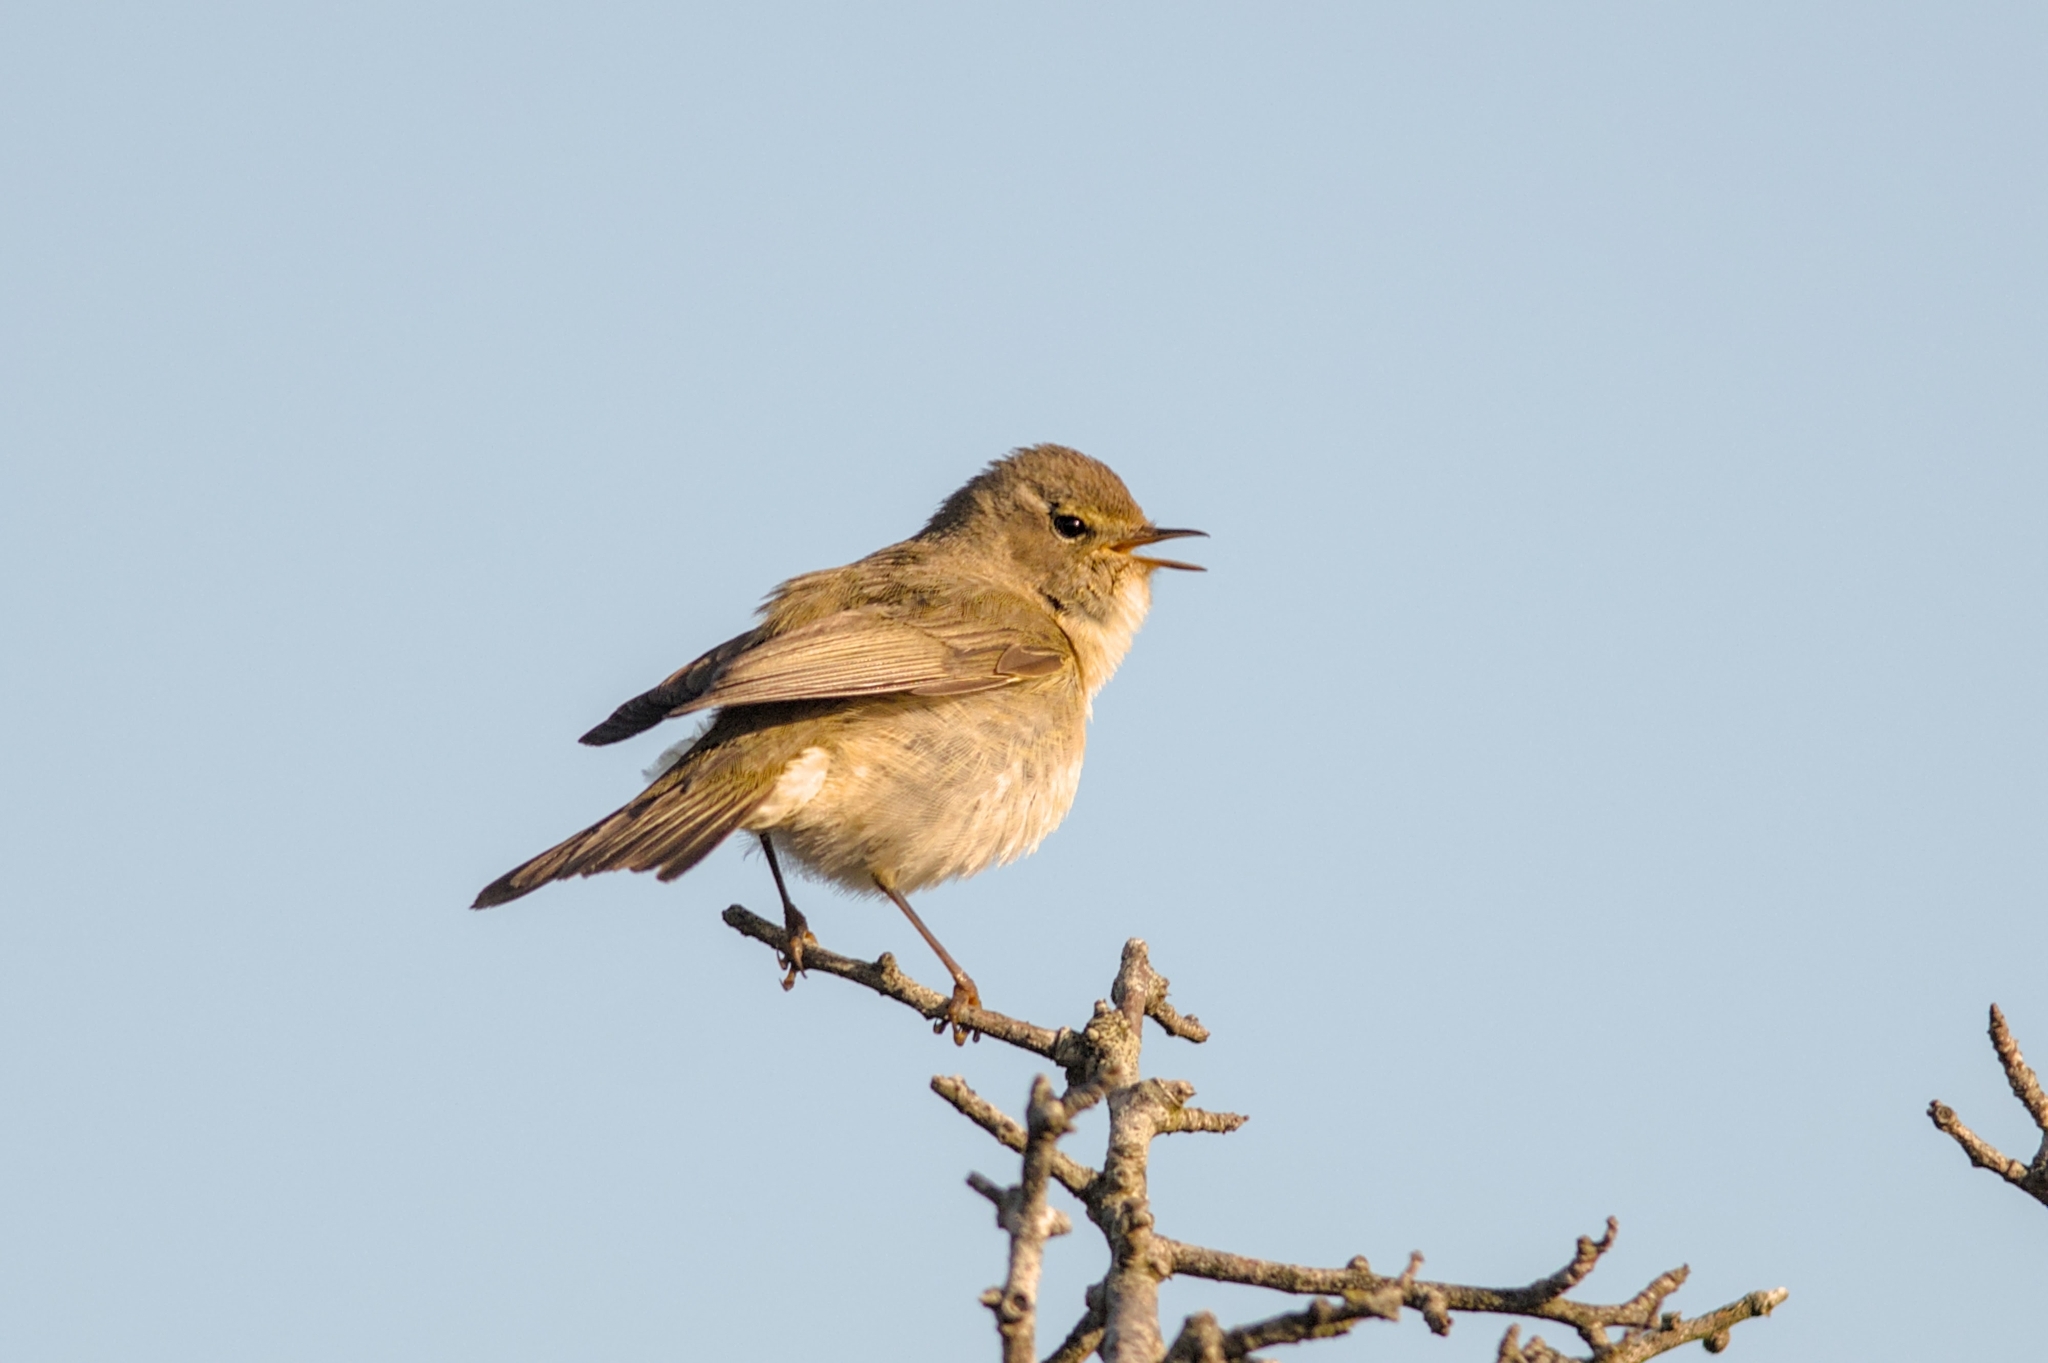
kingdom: Animalia
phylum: Chordata
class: Aves
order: Passeriformes
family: Phylloscopidae
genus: Phylloscopus
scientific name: Phylloscopus collybita
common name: Common chiffchaff
